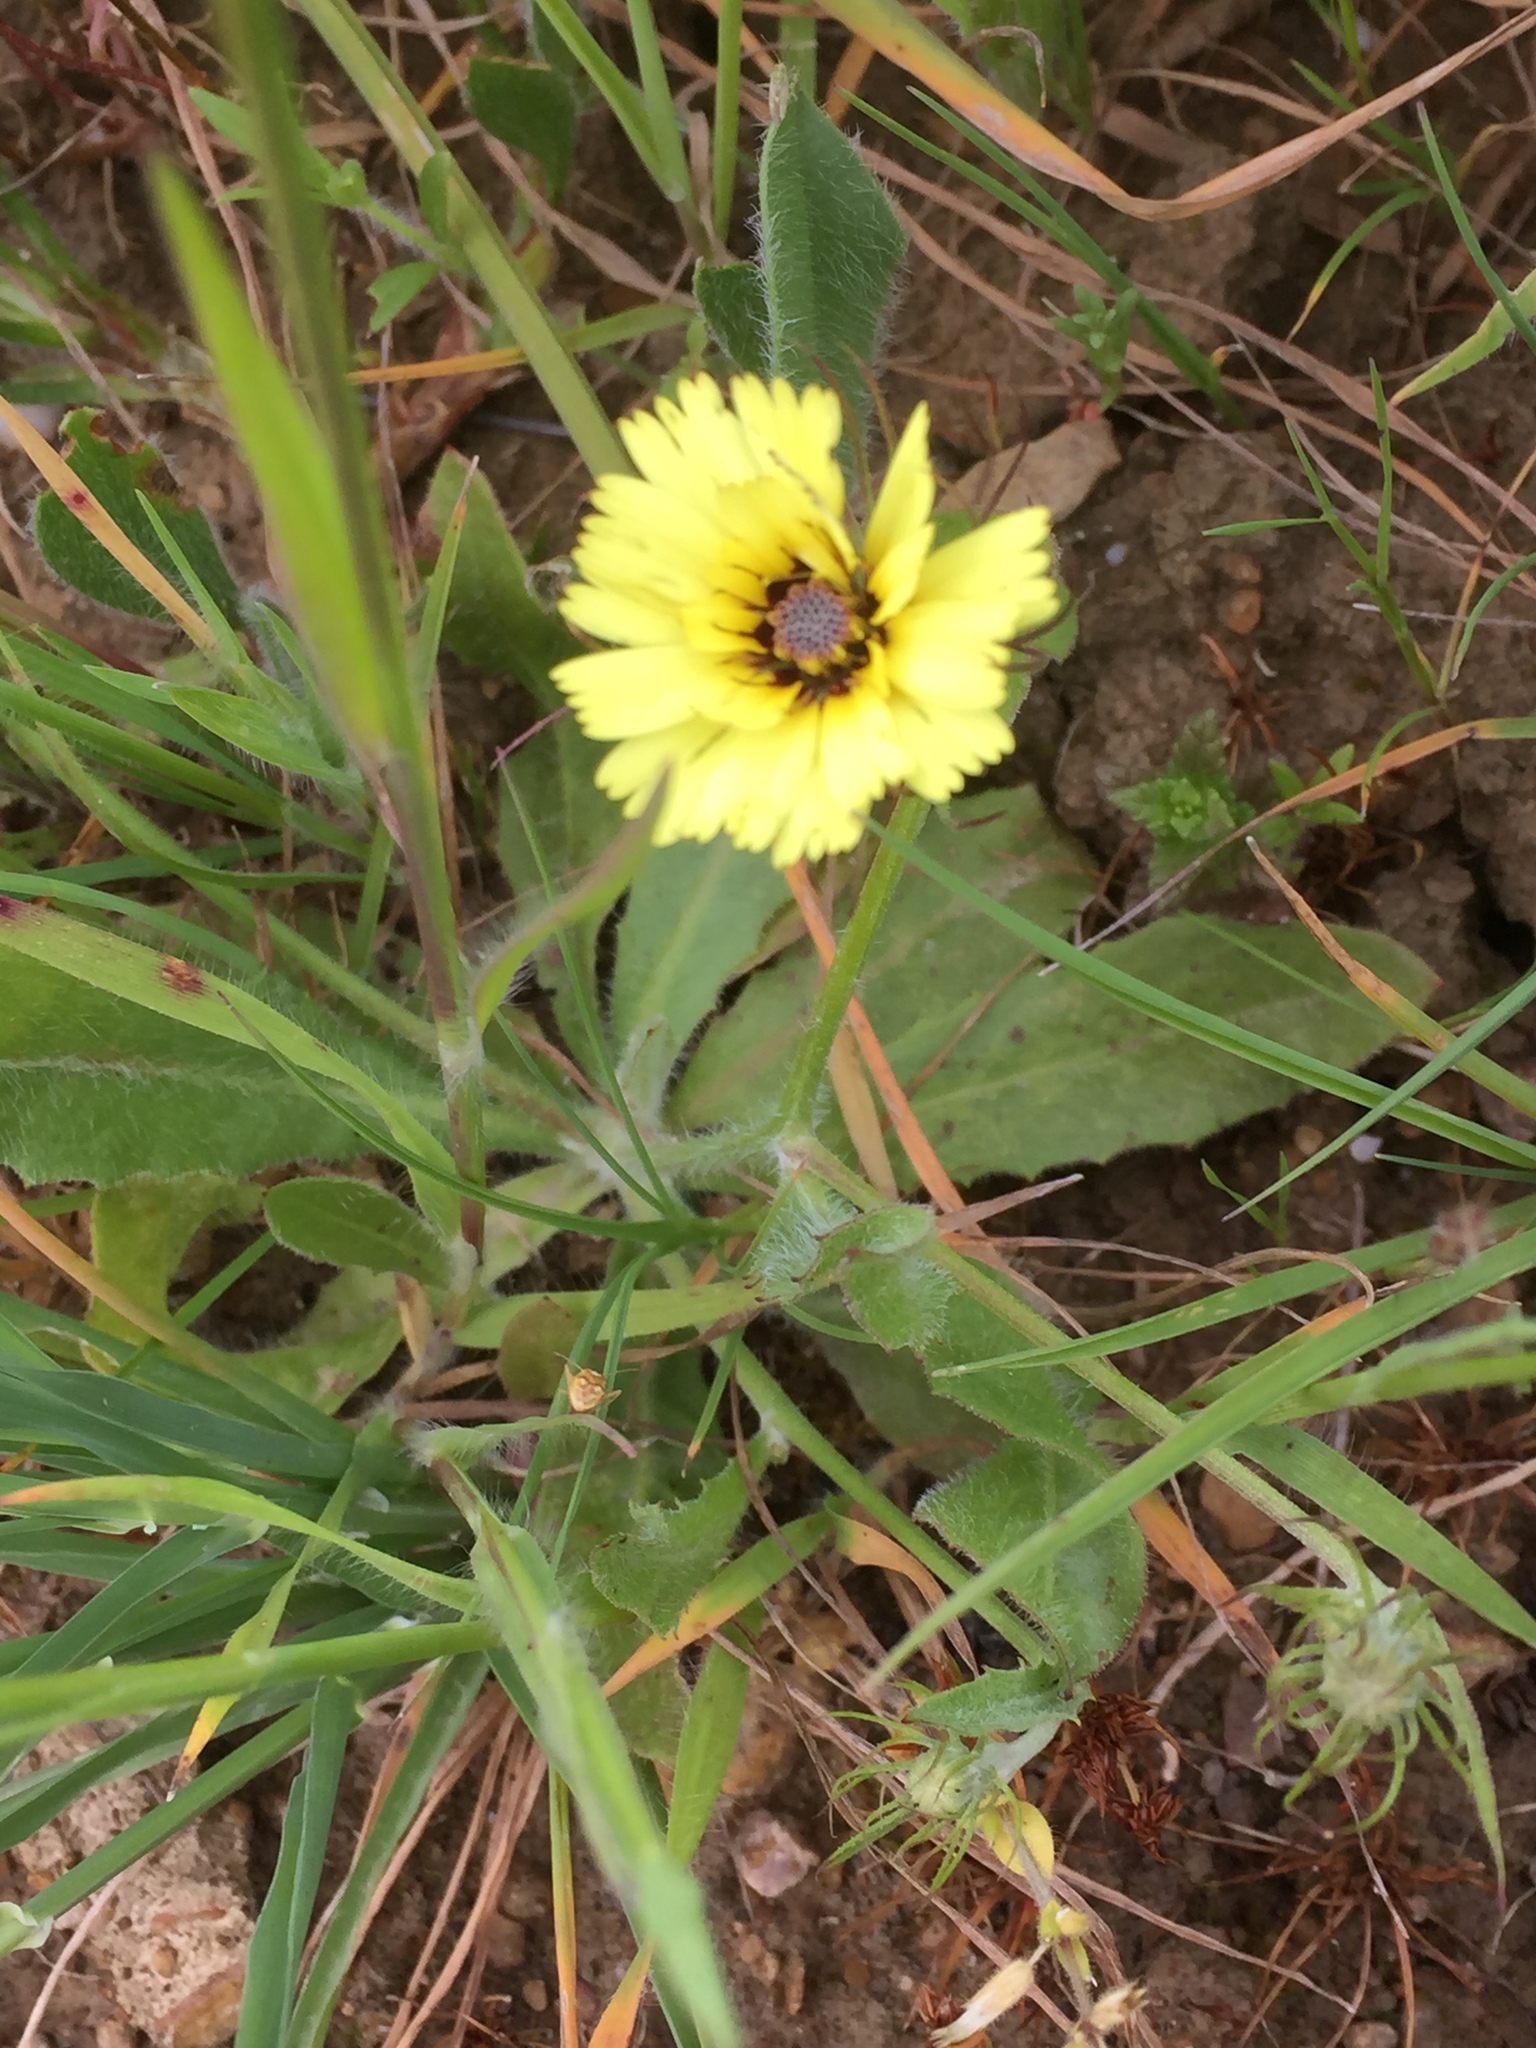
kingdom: Plantae
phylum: Tracheophyta
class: Magnoliopsida
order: Asterales
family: Asteraceae
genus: Tolpis
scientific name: Tolpis barbata
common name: Yellow hawkweed
